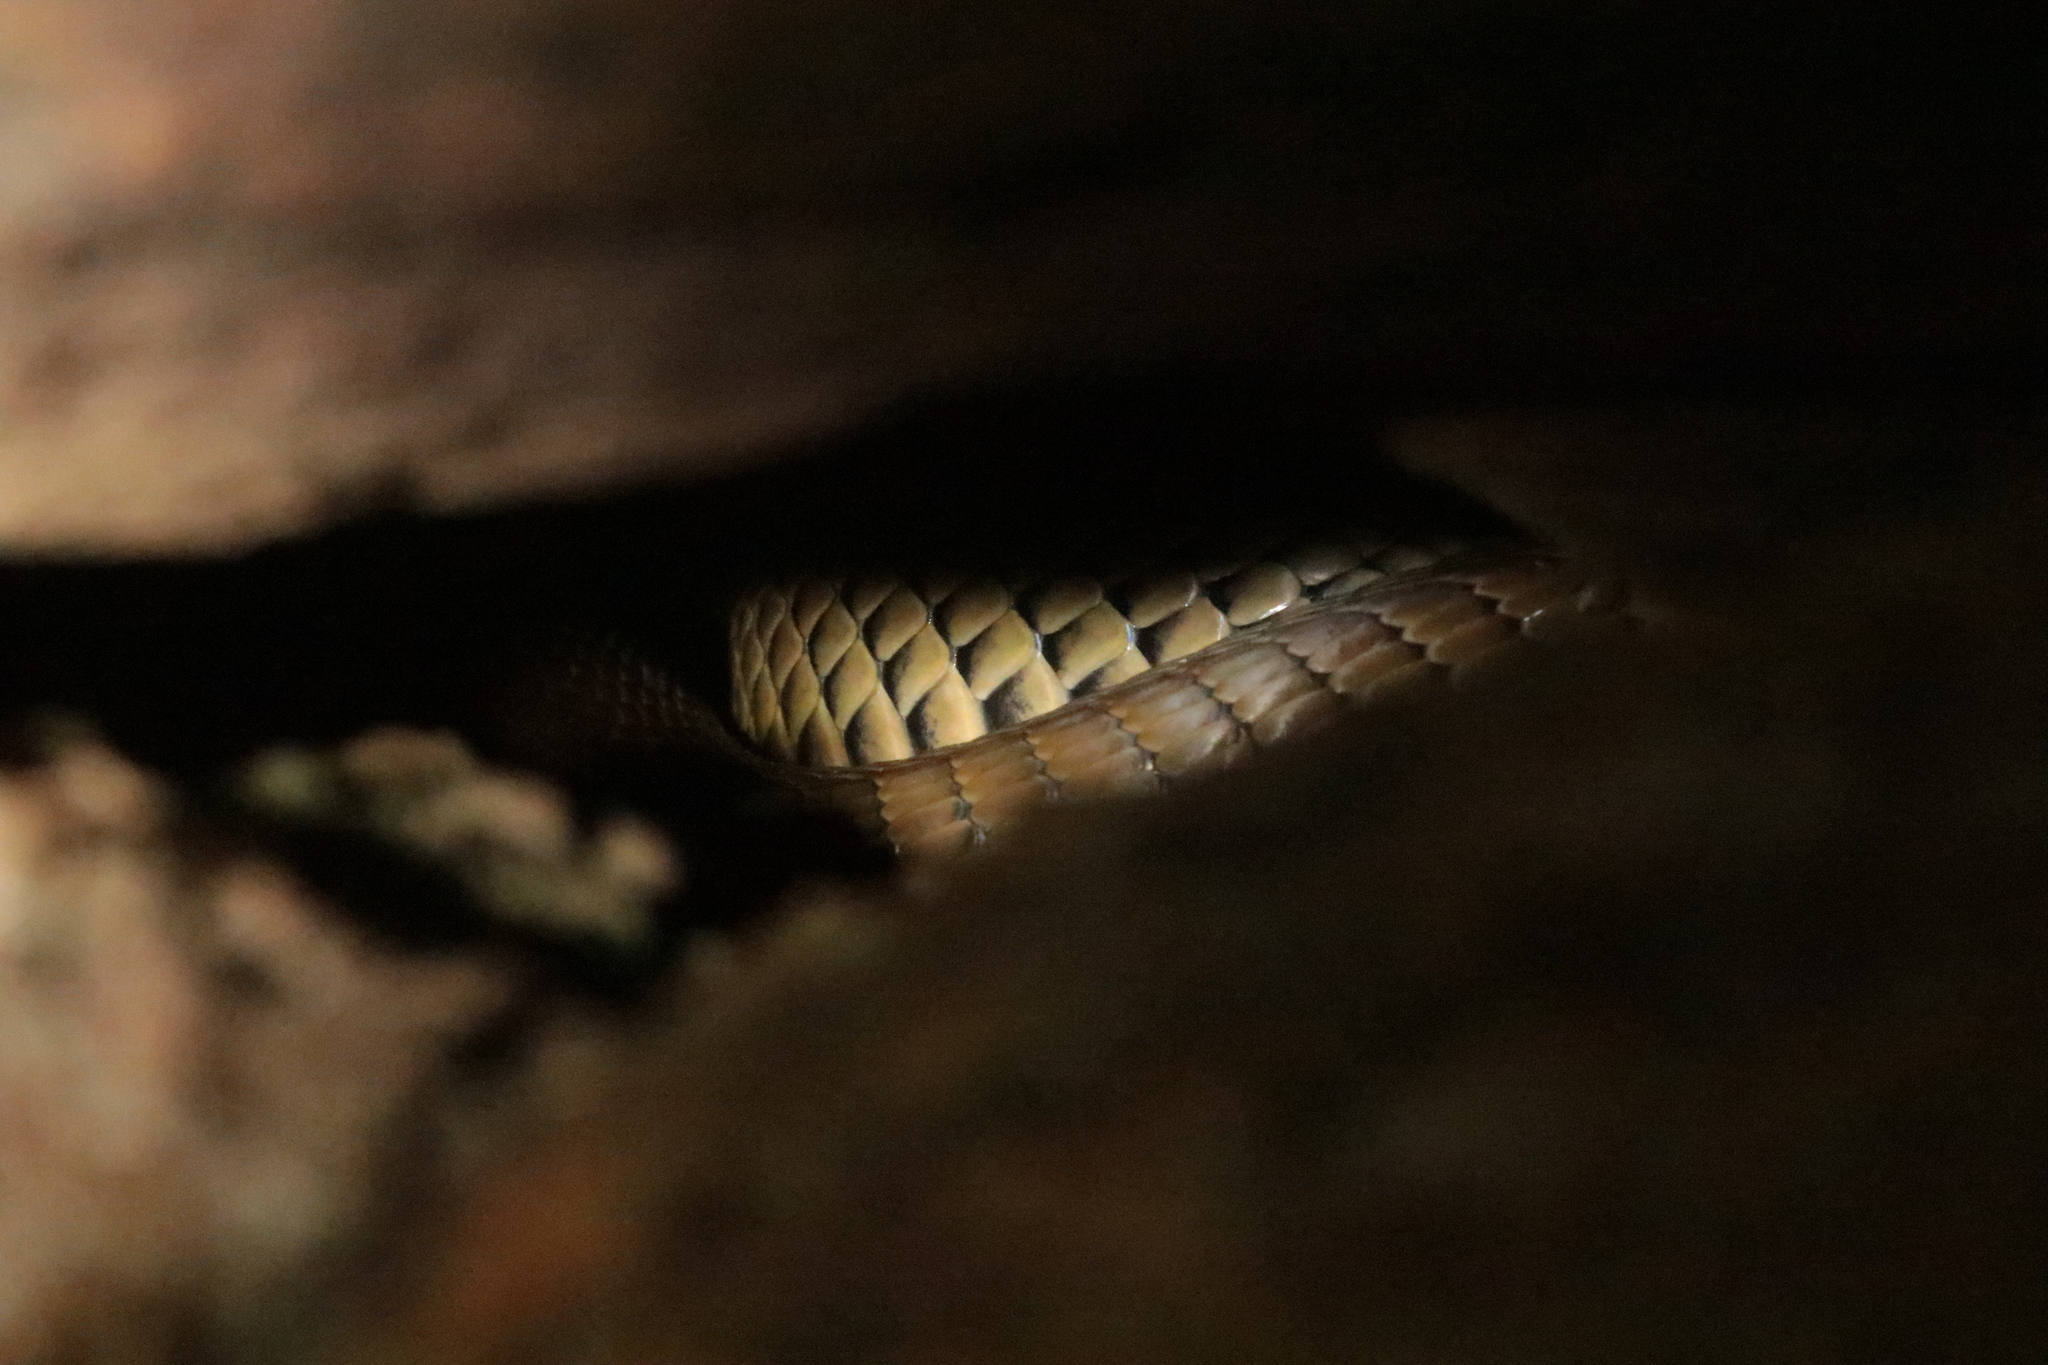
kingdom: Animalia
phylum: Chordata
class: Squamata
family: Elapidae
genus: Naja
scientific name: Naja mossambica
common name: Mozambique spitting cobra
